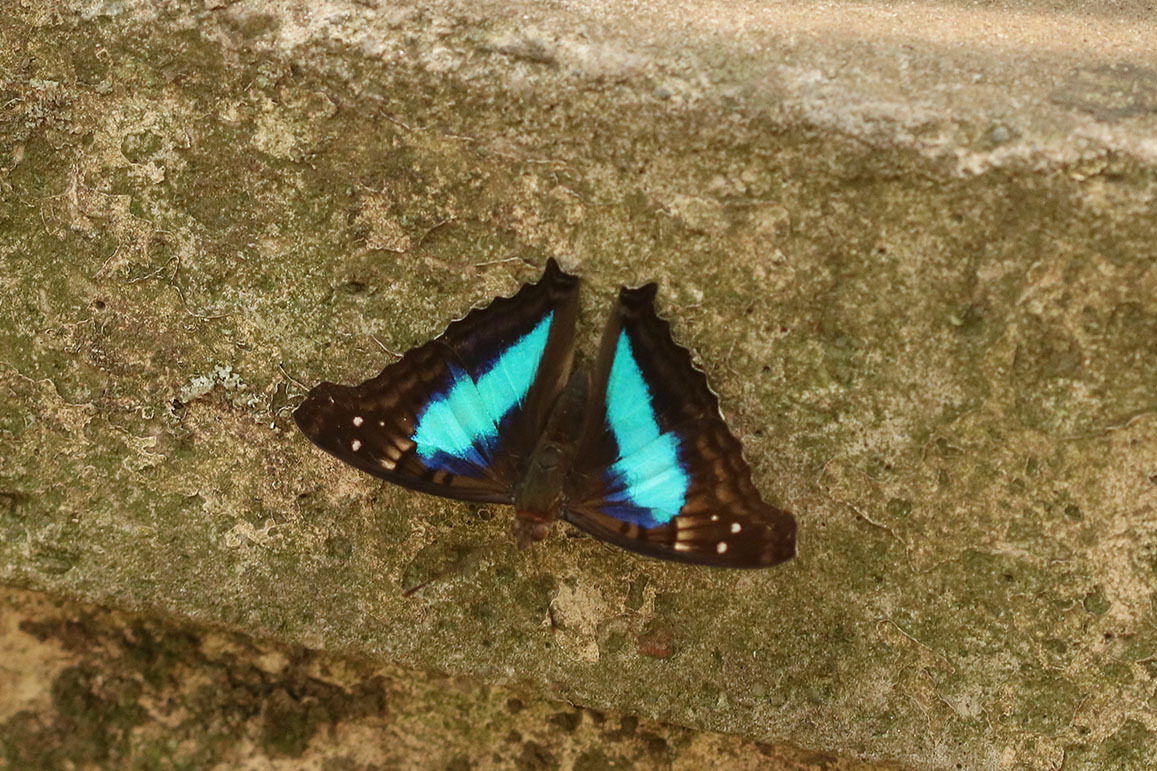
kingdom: Animalia
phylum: Arthropoda
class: Insecta
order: Lepidoptera
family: Nymphalidae
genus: Doxocopa
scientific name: Doxocopa laurentia
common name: Turquoise emperor
